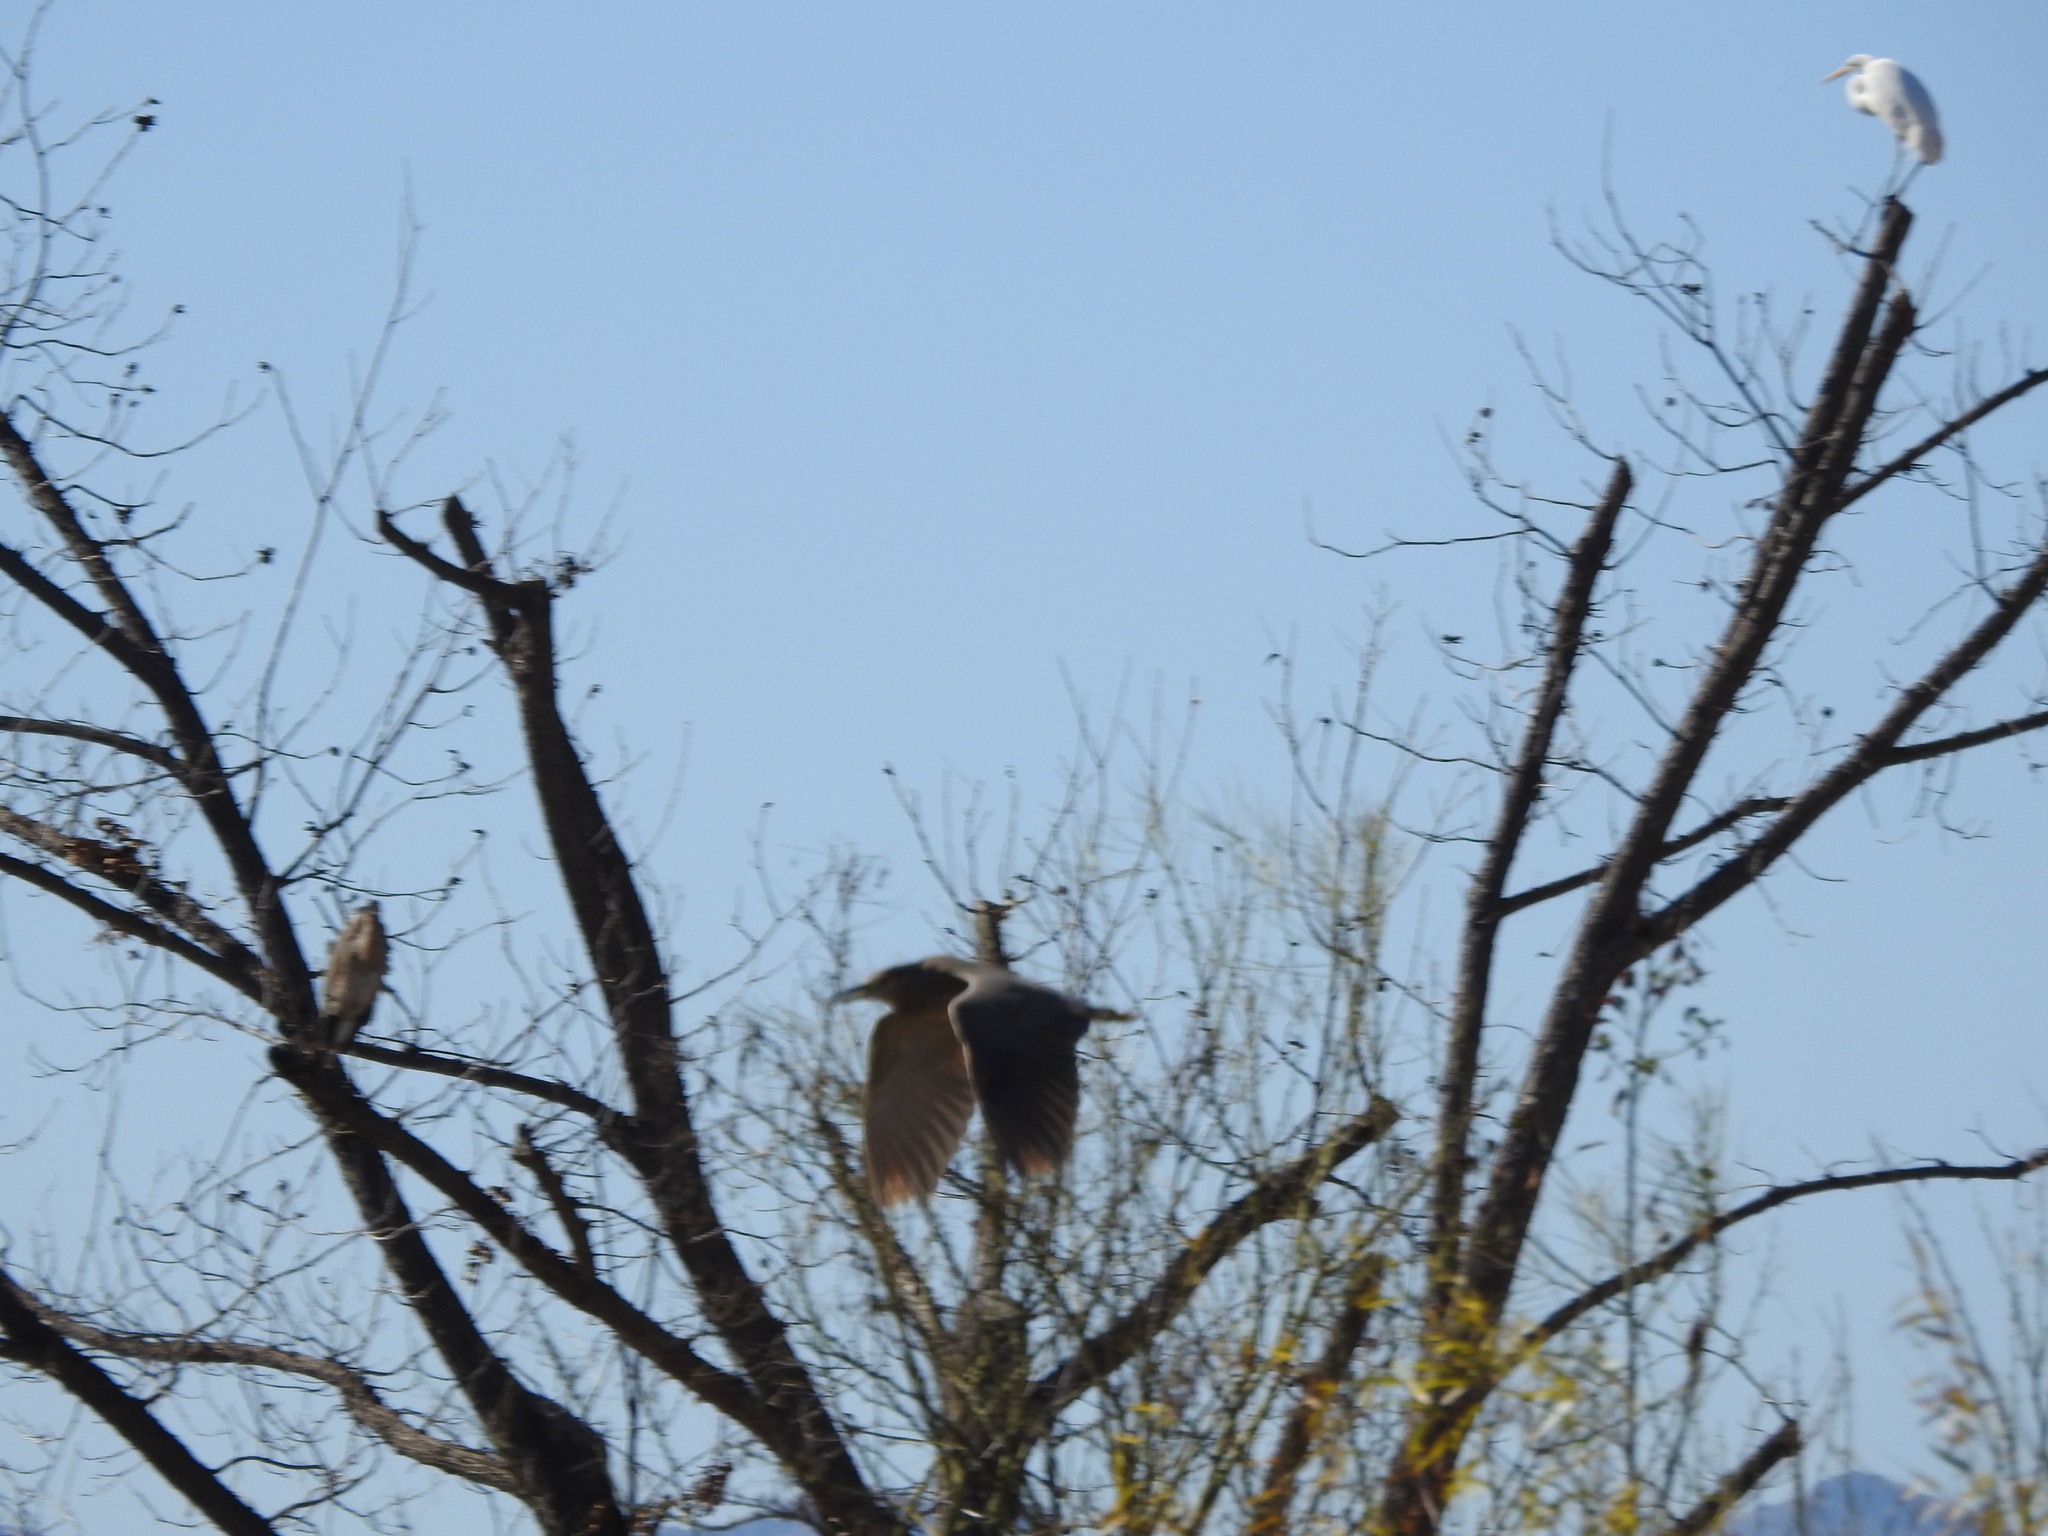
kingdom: Animalia
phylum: Chordata
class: Aves
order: Pelecaniformes
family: Ardeidae
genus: Nycticorax
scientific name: Nycticorax nycticorax
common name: Black-crowned night heron
